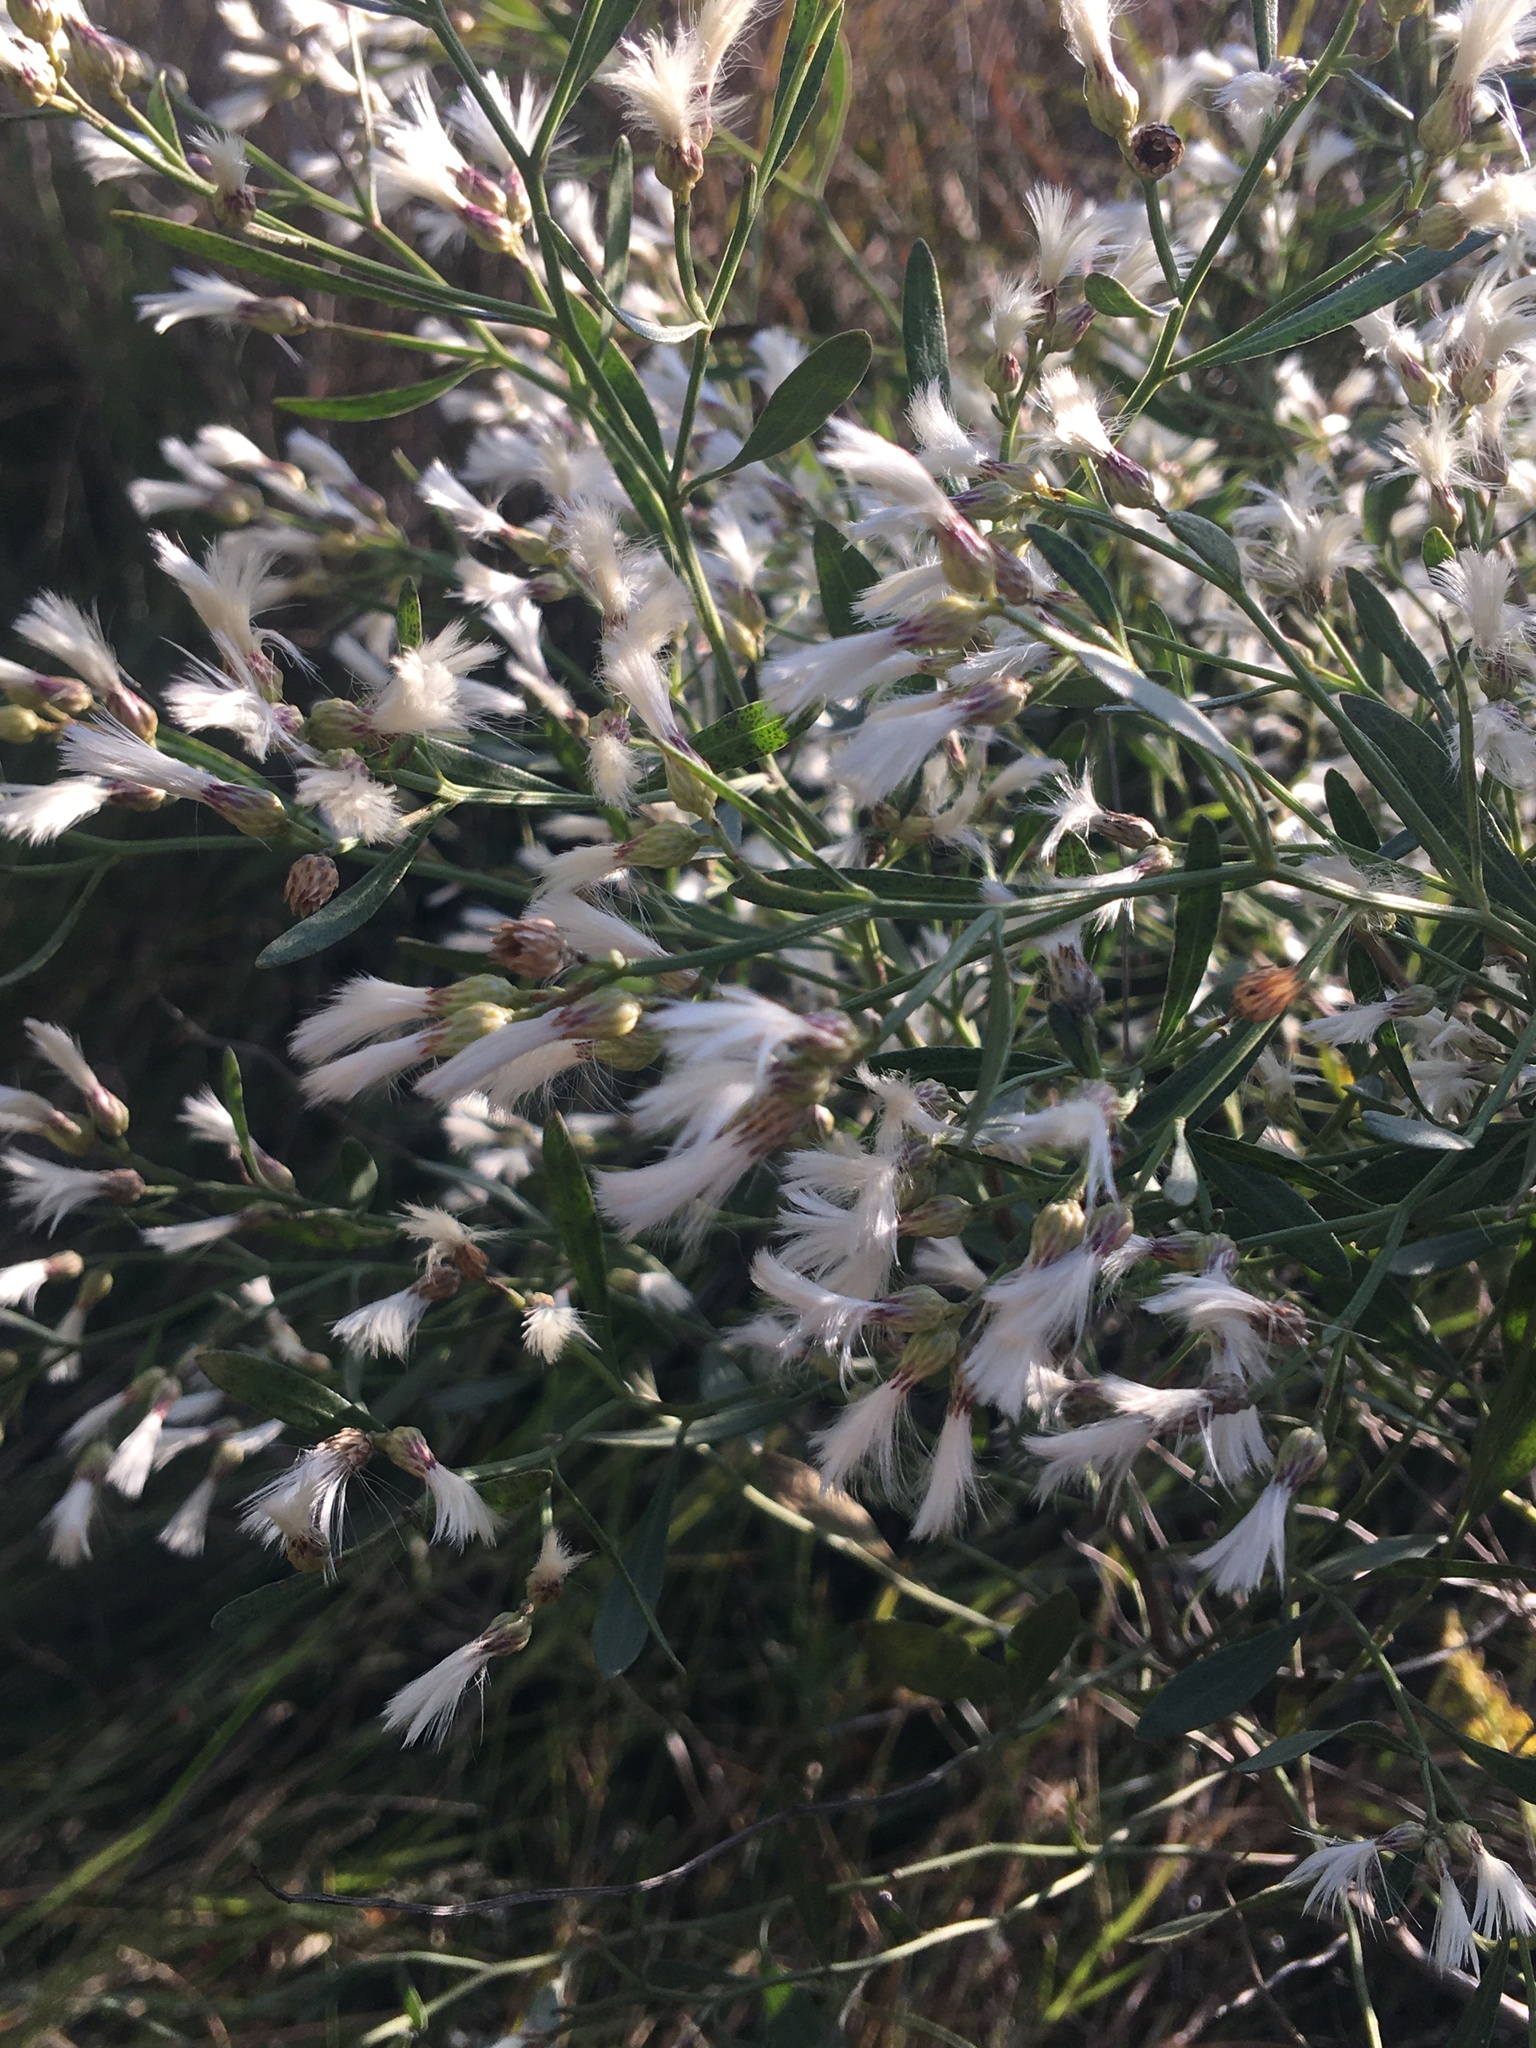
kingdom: Plantae
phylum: Tracheophyta
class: Magnoliopsida
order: Asterales
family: Asteraceae
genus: Baccharis
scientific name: Baccharis halimifolia
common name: Eastern baccharis
